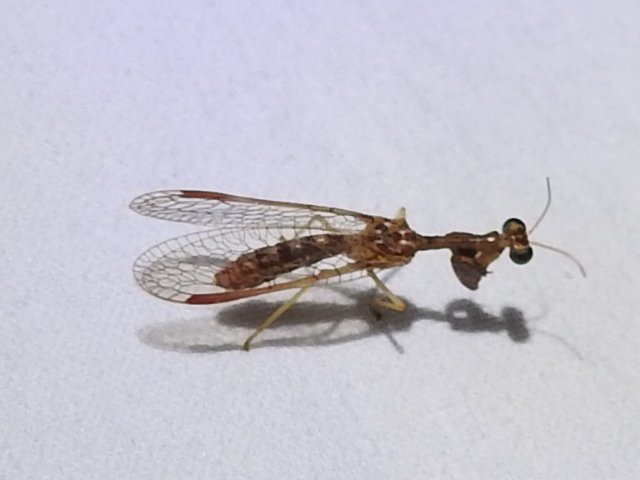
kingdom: Animalia
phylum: Arthropoda
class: Insecta
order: Neuroptera
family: Mantispidae
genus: Dicromantispa
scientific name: Dicromantispa sayi
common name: Say's mantidfly
